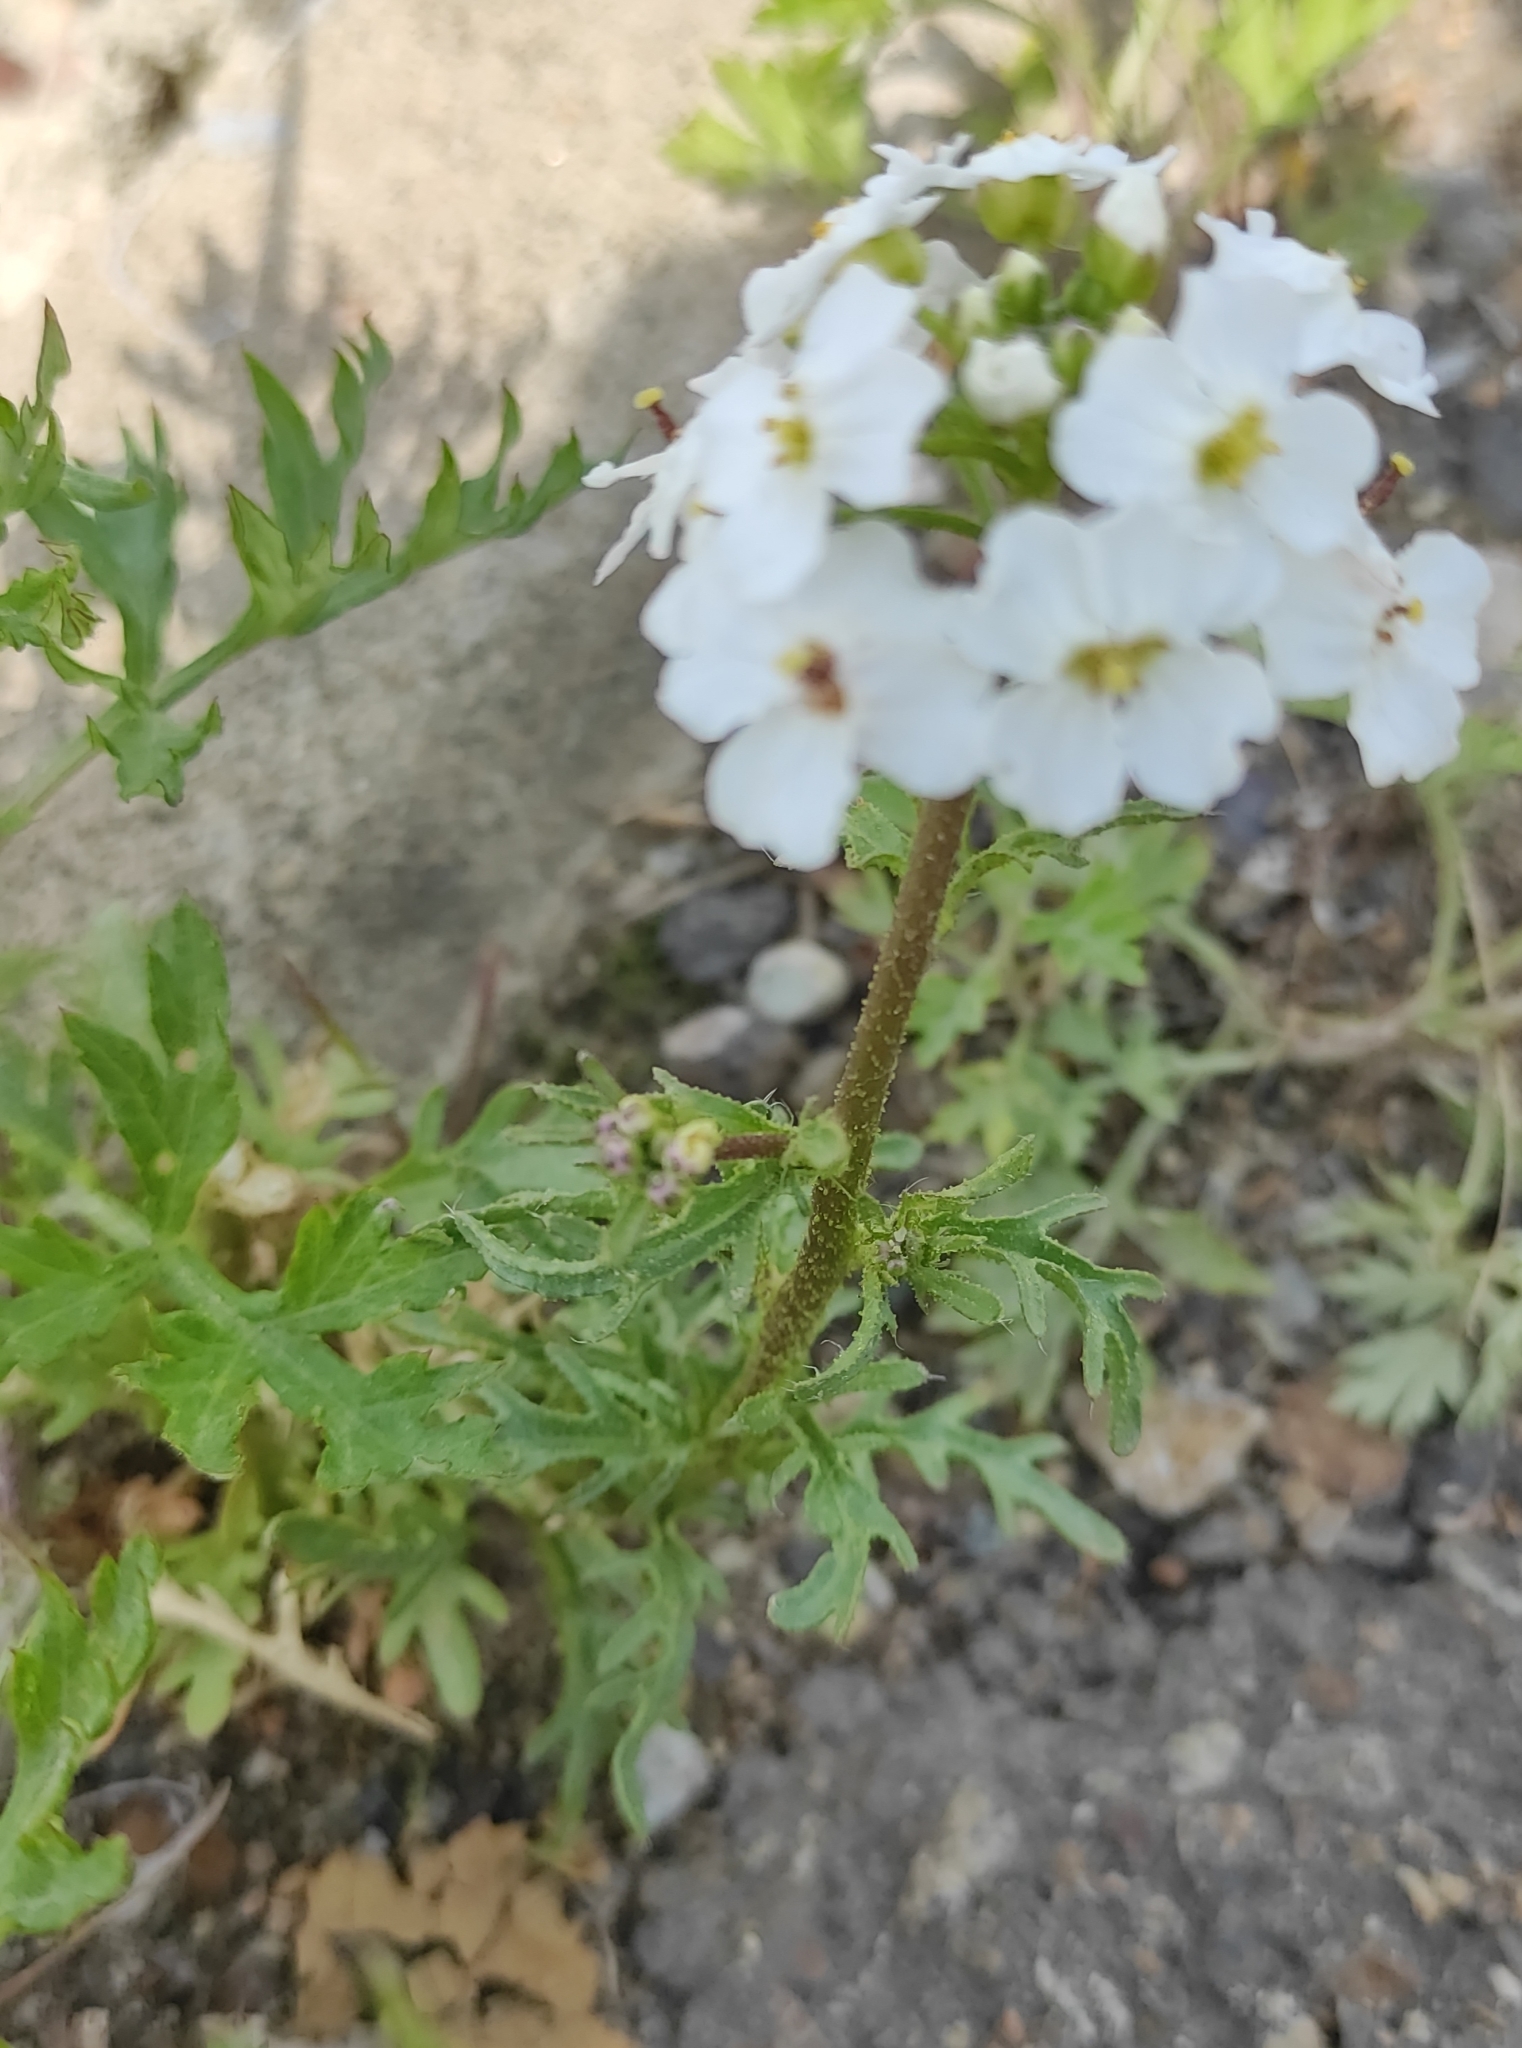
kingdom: Plantae
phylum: Tracheophyta
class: Magnoliopsida
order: Brassicales
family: Brassicaceae
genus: Dontostemon
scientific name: Dontostemon pinnatifidus
